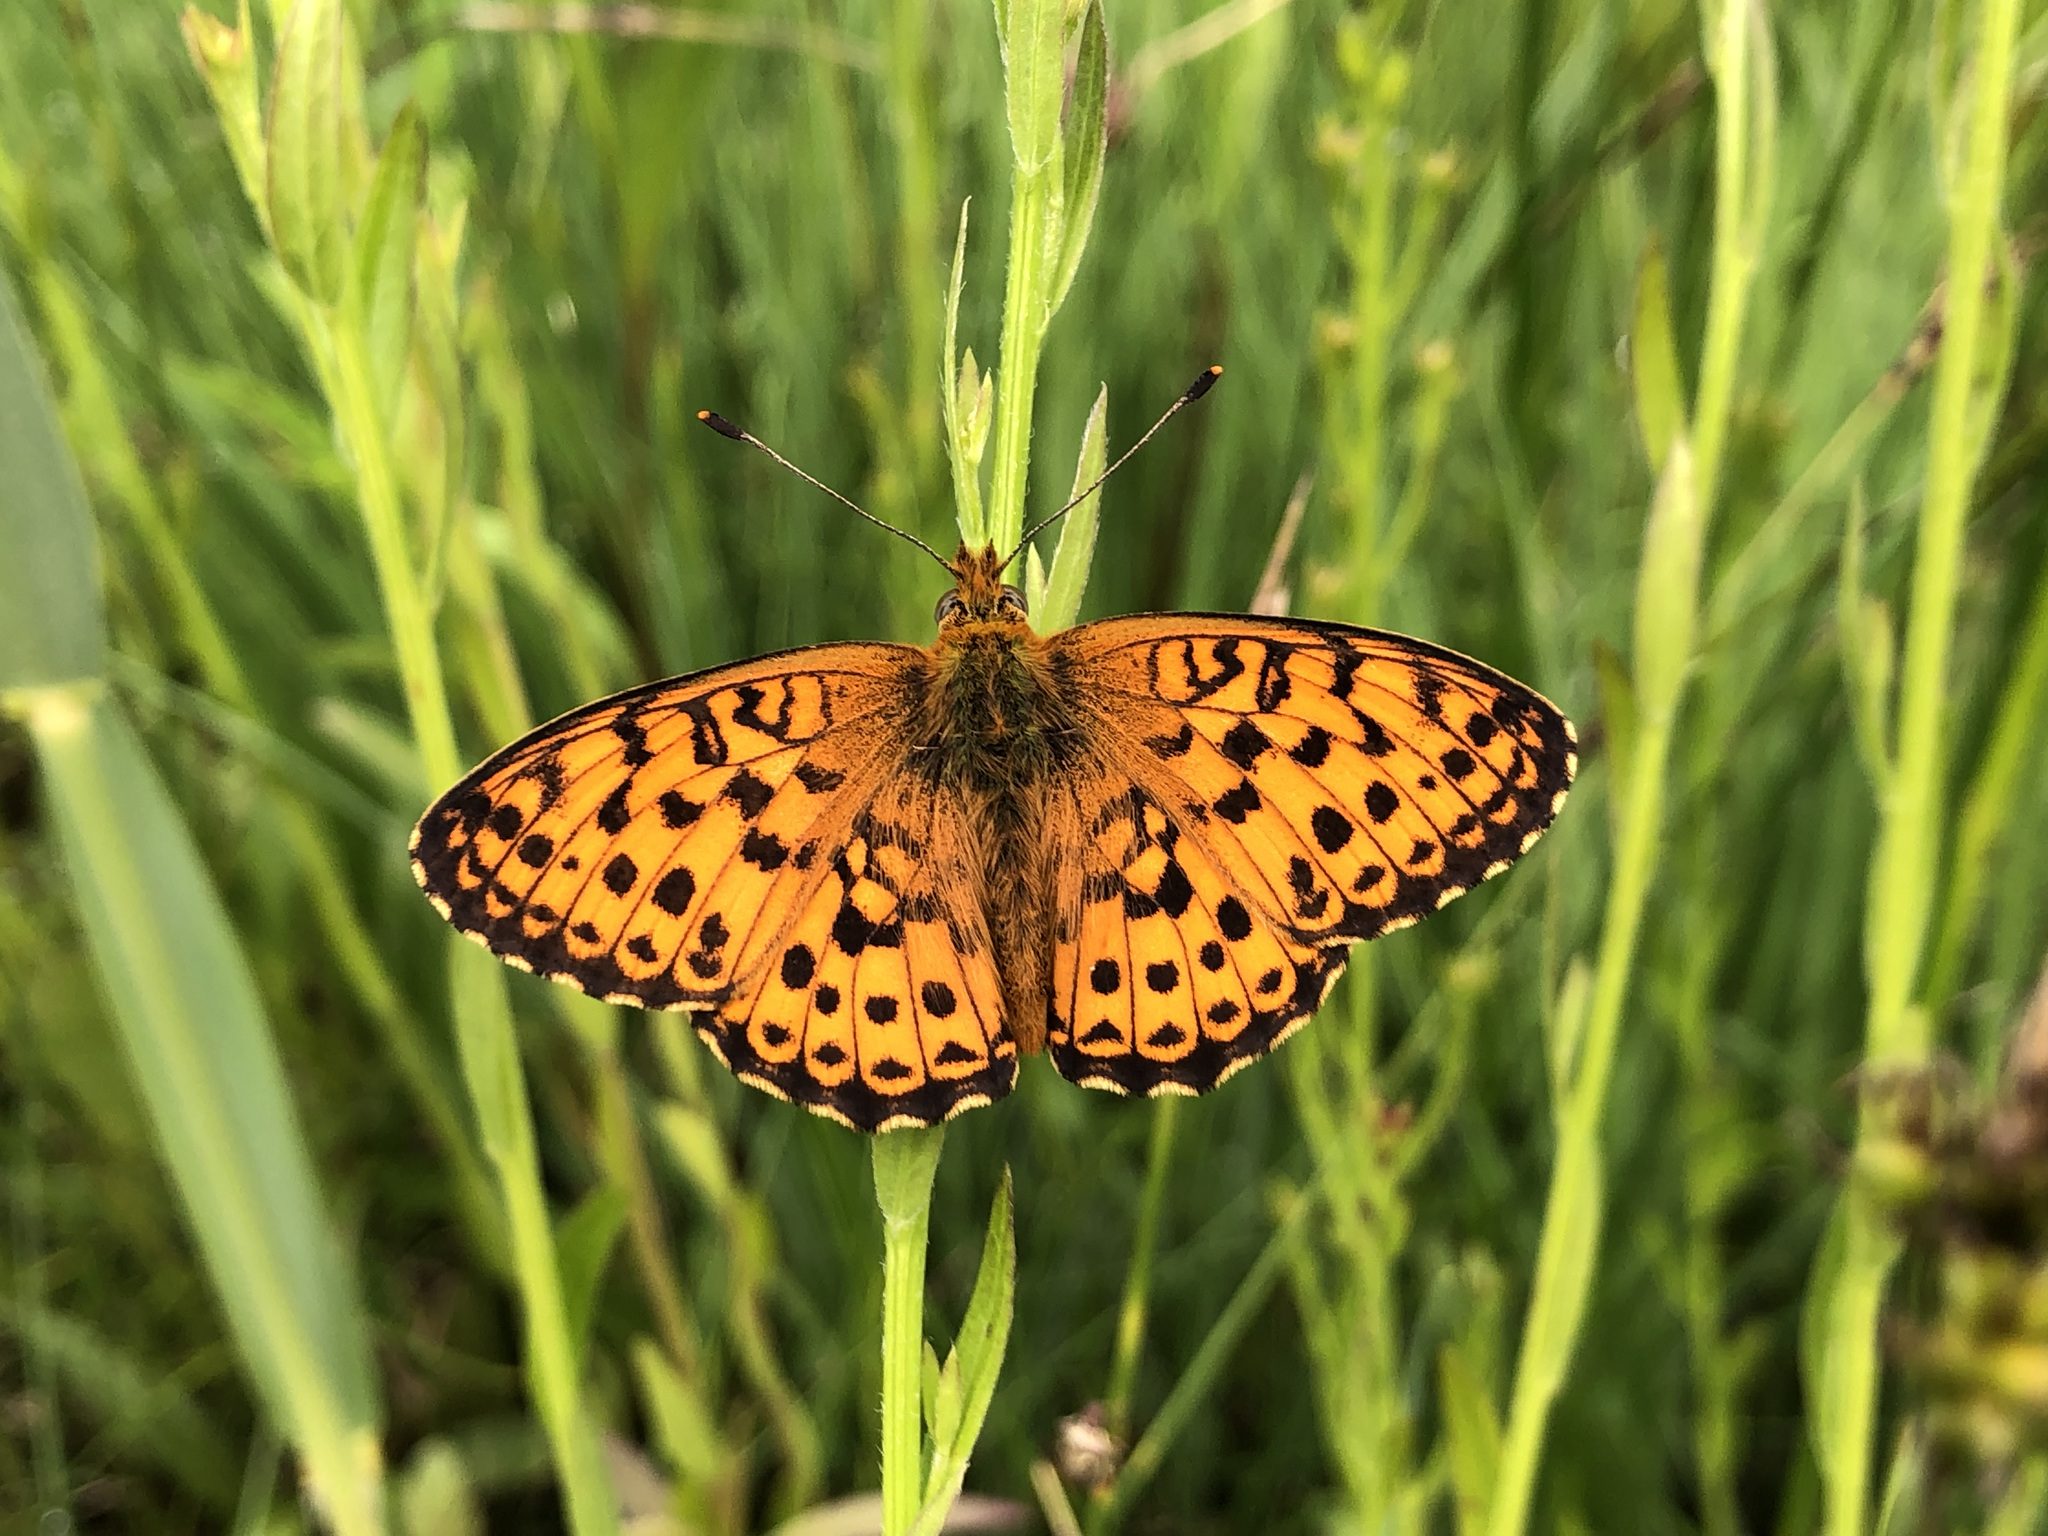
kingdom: Animalia
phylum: Arthropoda
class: Insecta
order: Lepidoptera
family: Nymphalidae
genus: Brenthis
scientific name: Brenthis ino
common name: Lesser marbled fritillary
